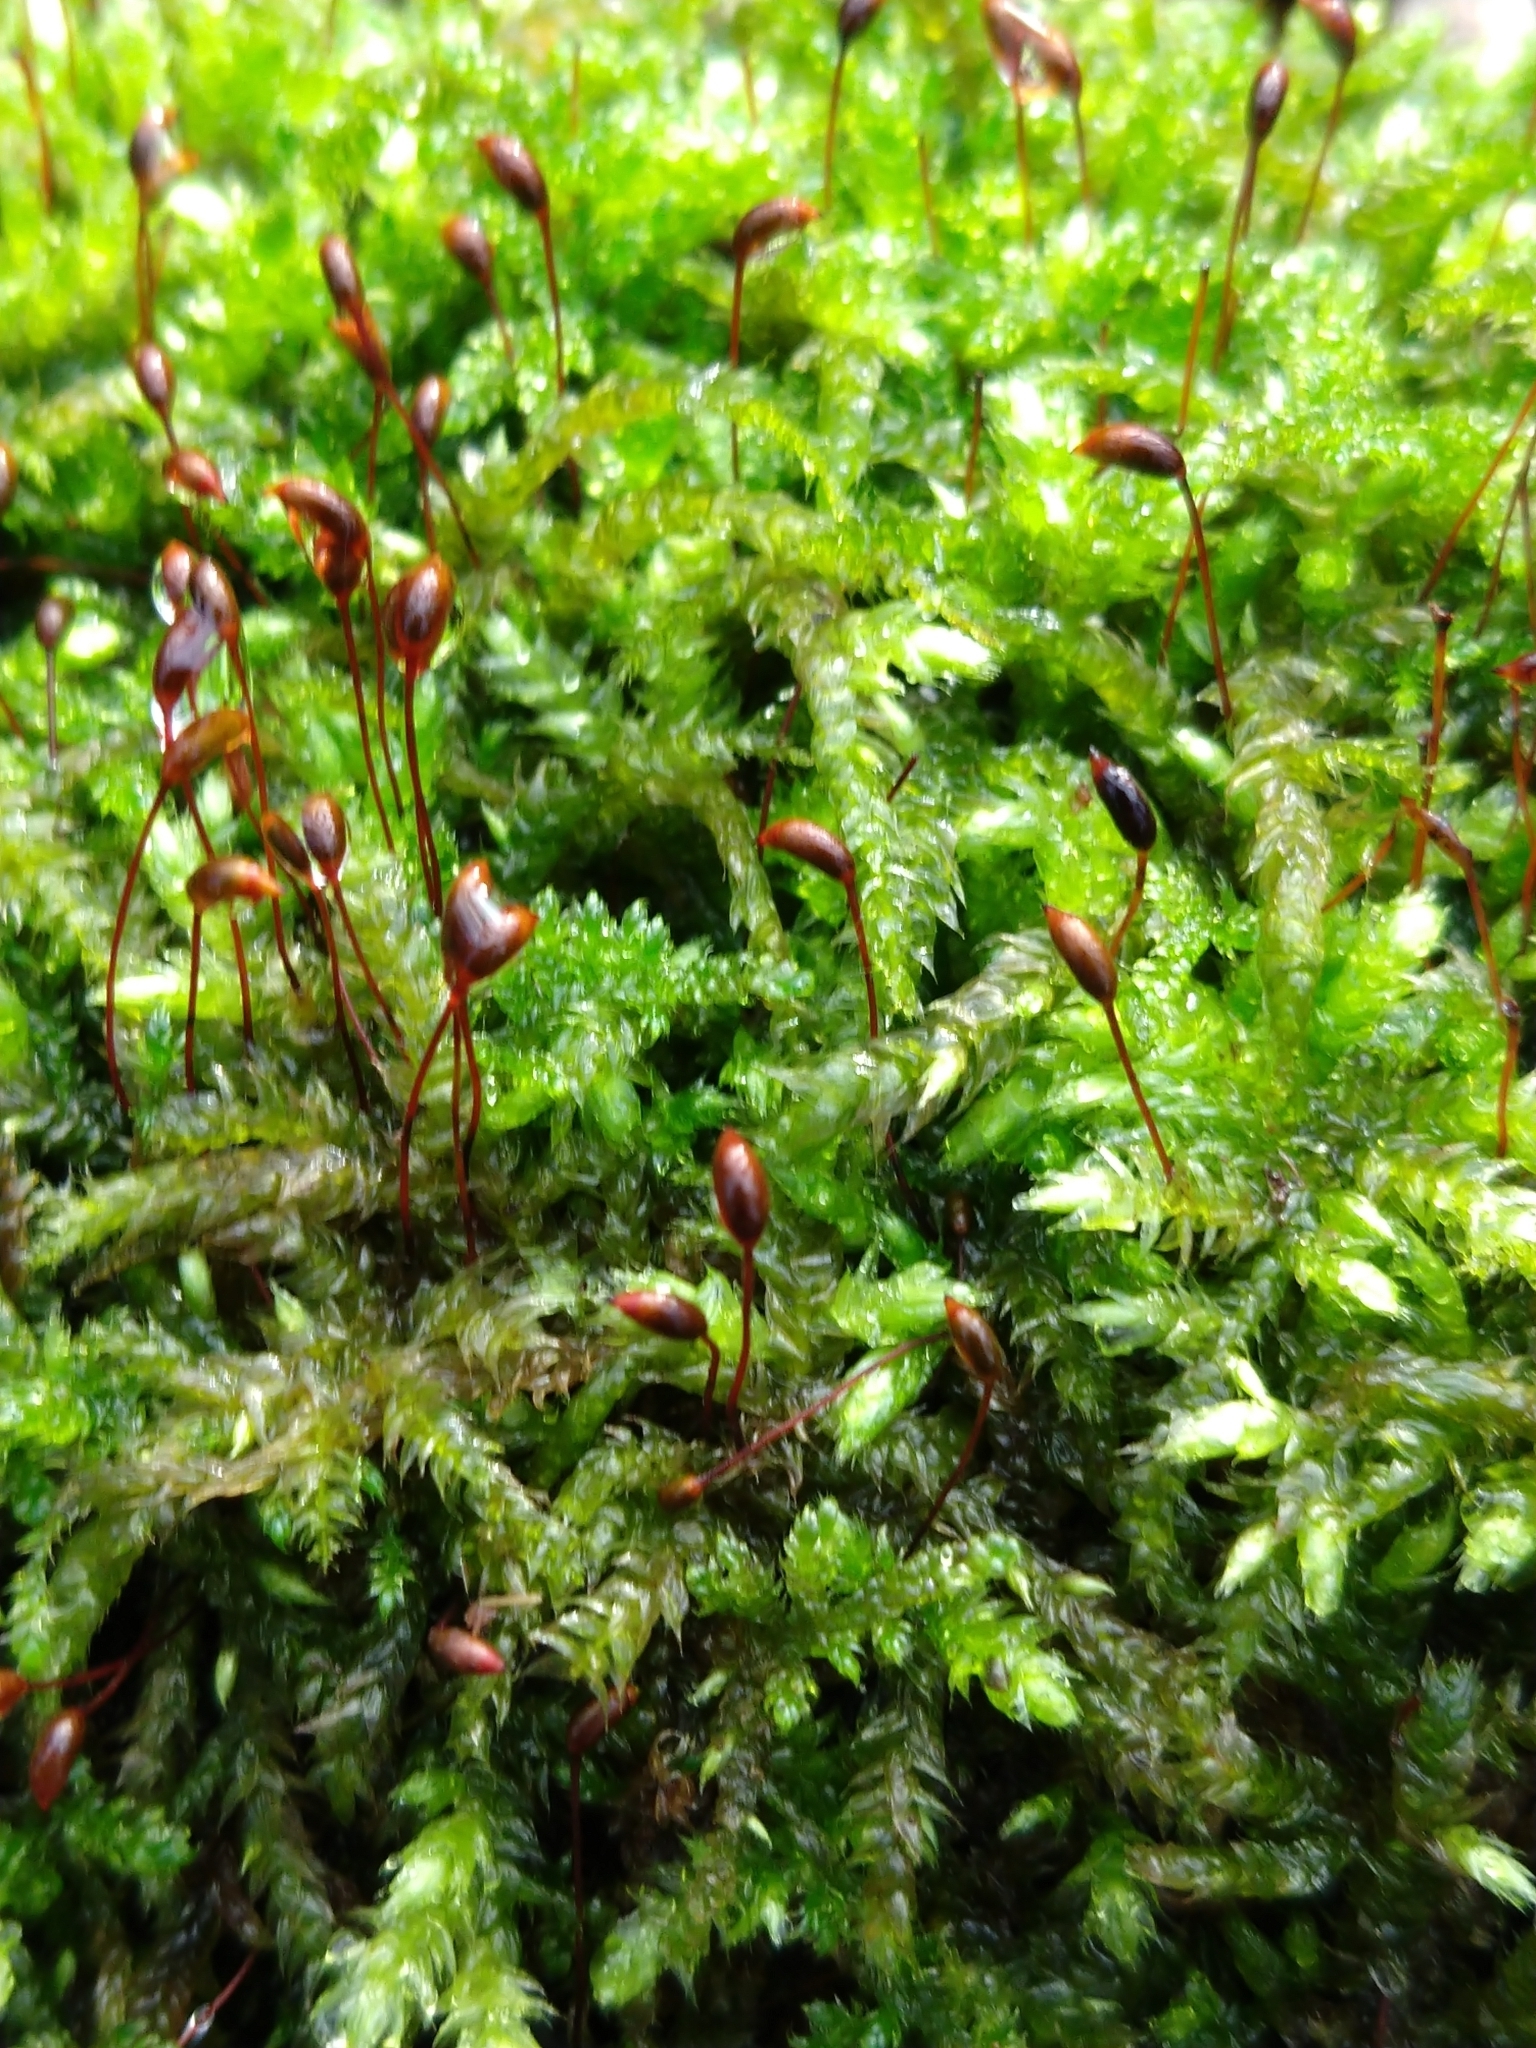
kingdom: Plantae
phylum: Bryophyta
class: Bryopsida
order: Hypnales
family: Brachytheciaceae
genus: Brachythecium
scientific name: Brachythecium rutabulum
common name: Rough-stalked feather-moss
